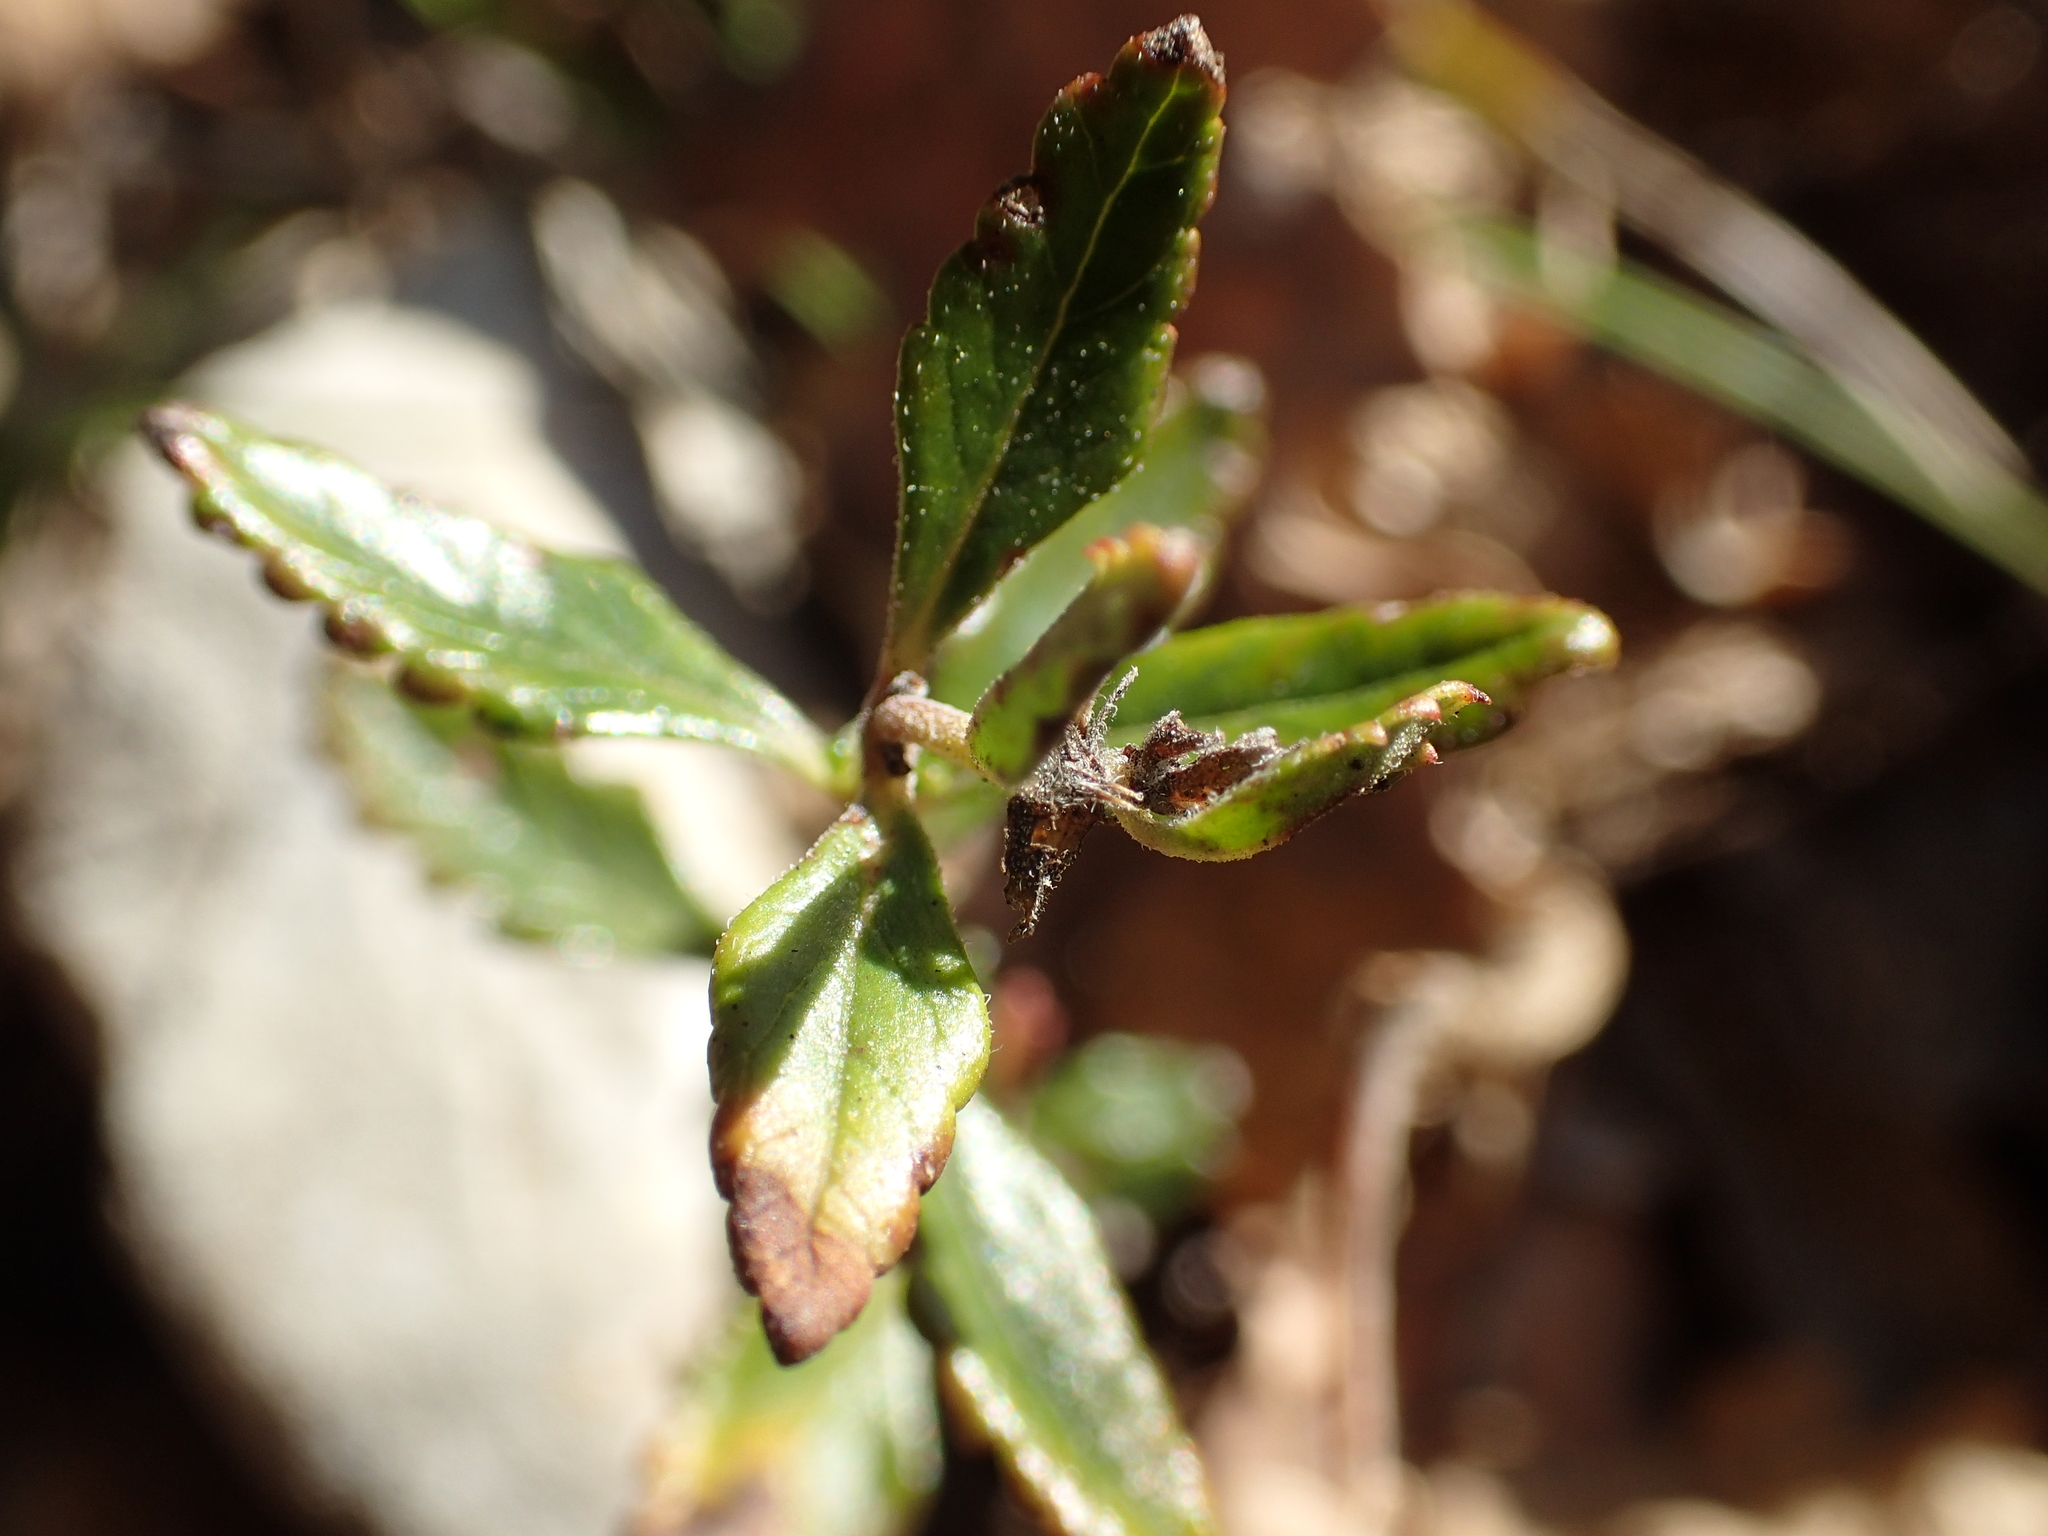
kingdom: Plantae
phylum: Tracheophyta
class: Magnoliopsida
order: Lamiales
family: Lamiaceae
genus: Teucrium
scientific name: Teucrium chamaedrys
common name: Wall germander
